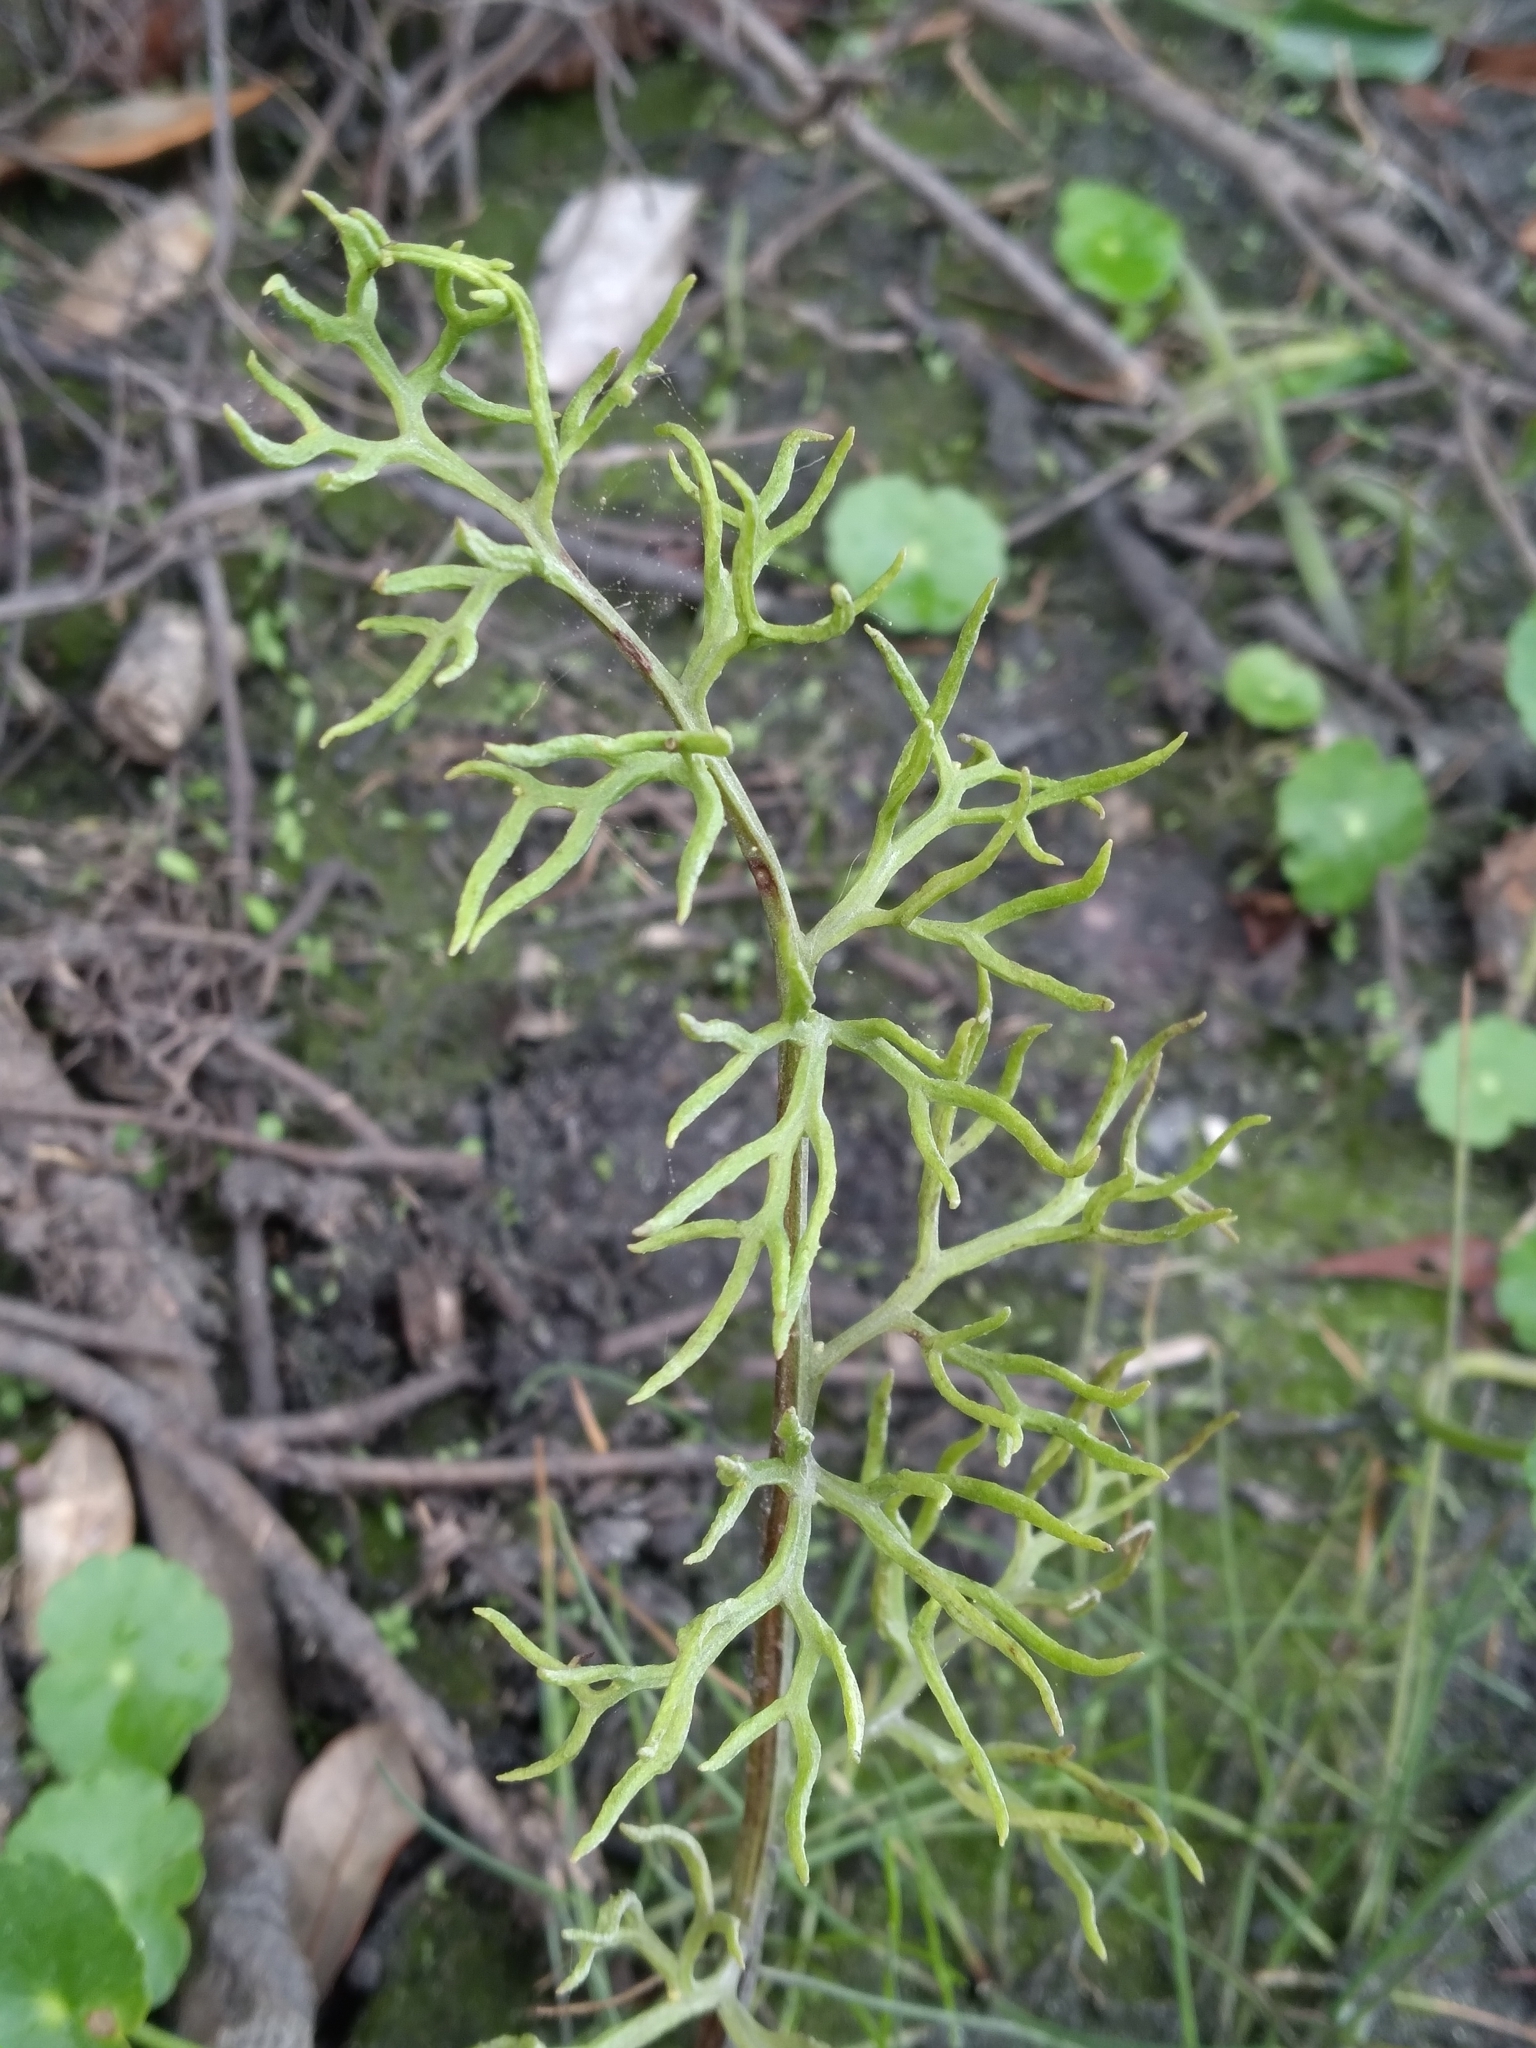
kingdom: Plantae
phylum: Tracheophyta
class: Polypodiopsida
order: Polypodiales
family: Pteridaceae
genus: Ceratopteris
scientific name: Ceratopteris thalictroides
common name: Water fern
